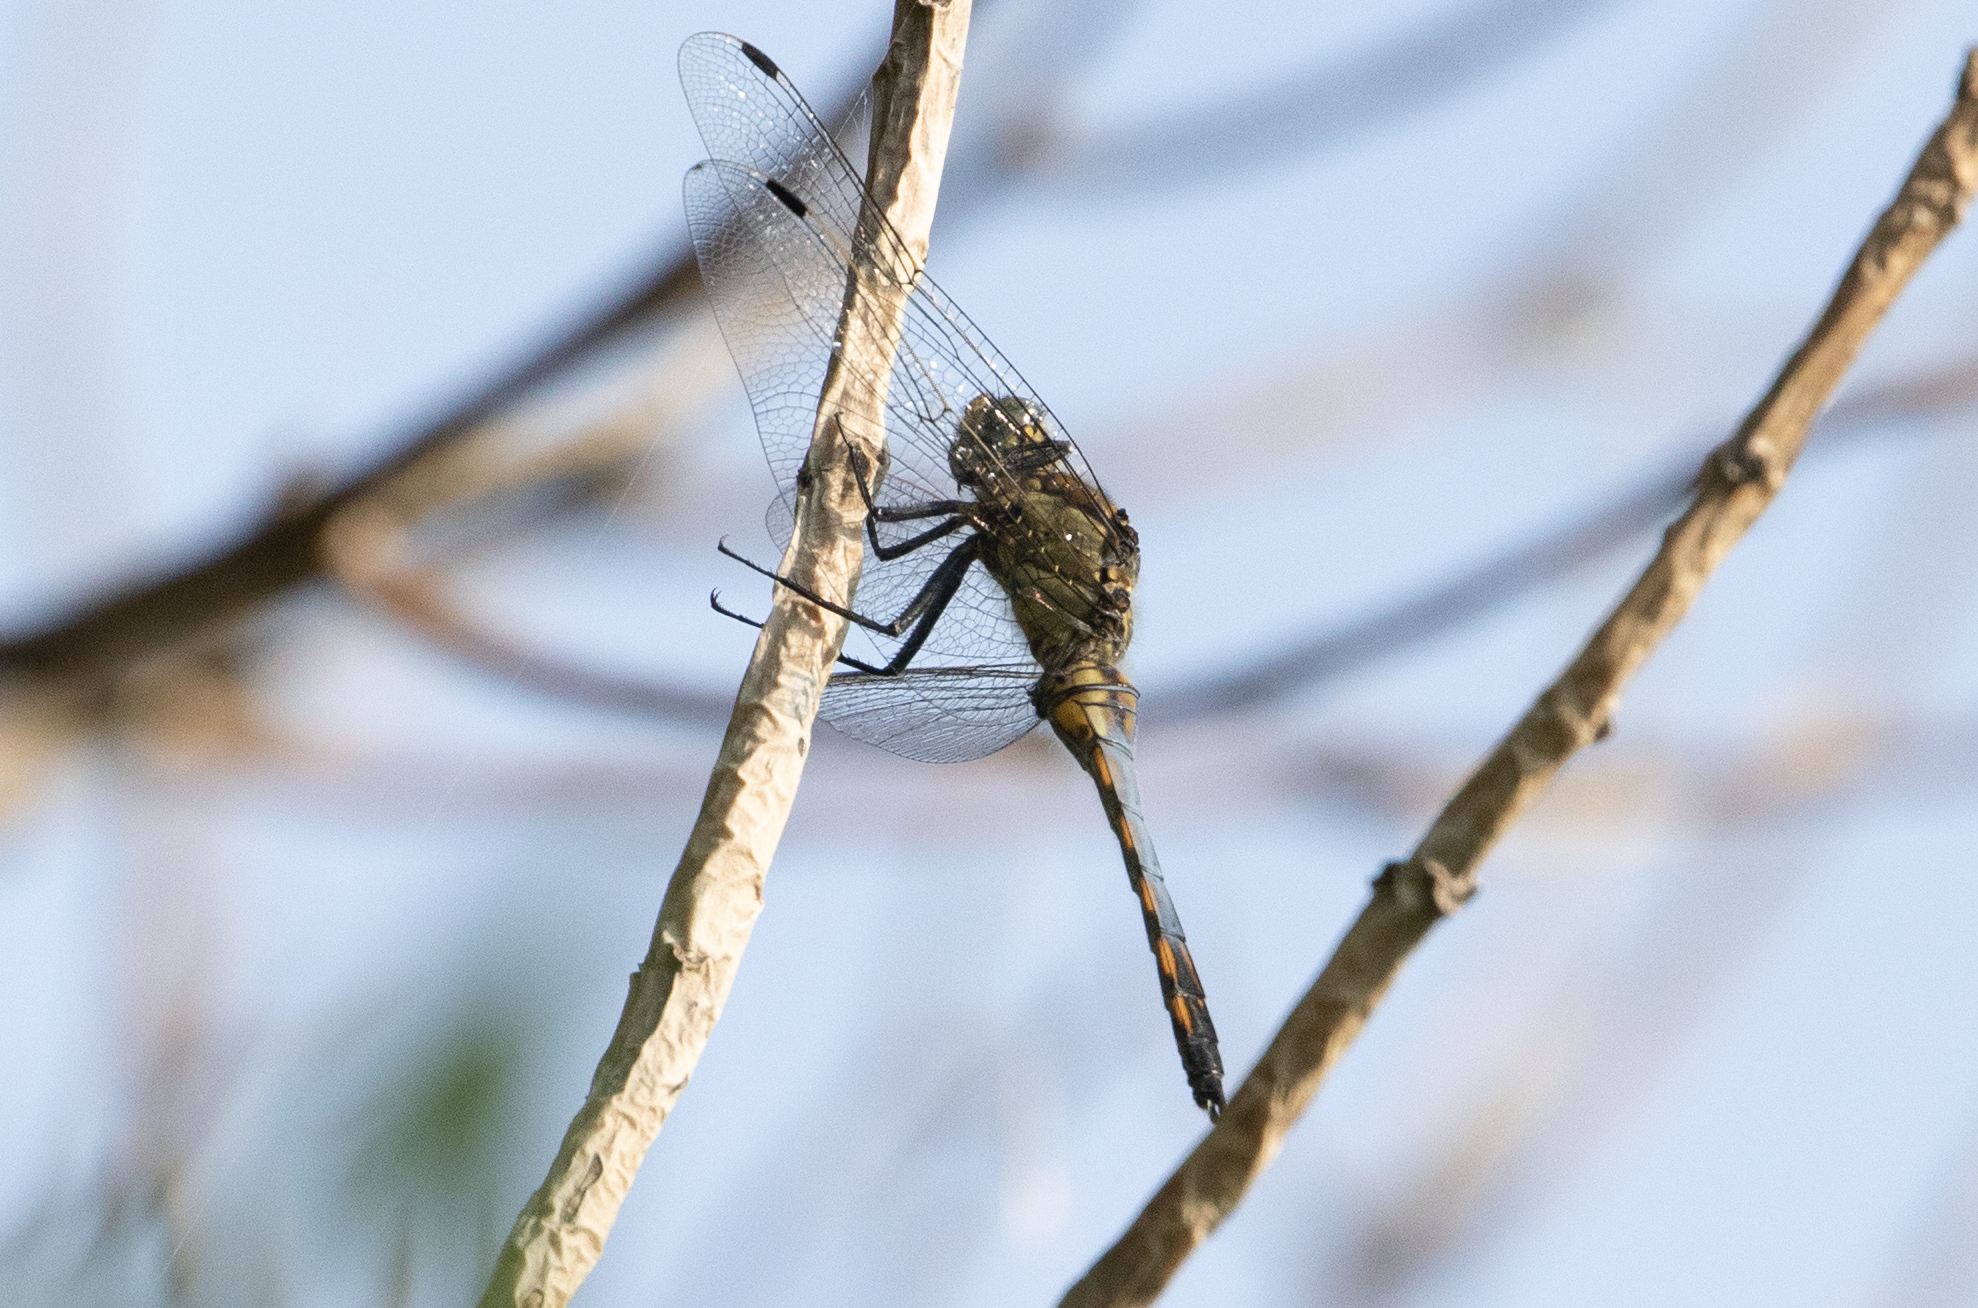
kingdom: Animalia
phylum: Arthropoda
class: Insecta
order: Odonata
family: Libellulidae
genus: Orthetrum
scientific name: Orthetrum cancellatum
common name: Black-tailed skimmer
